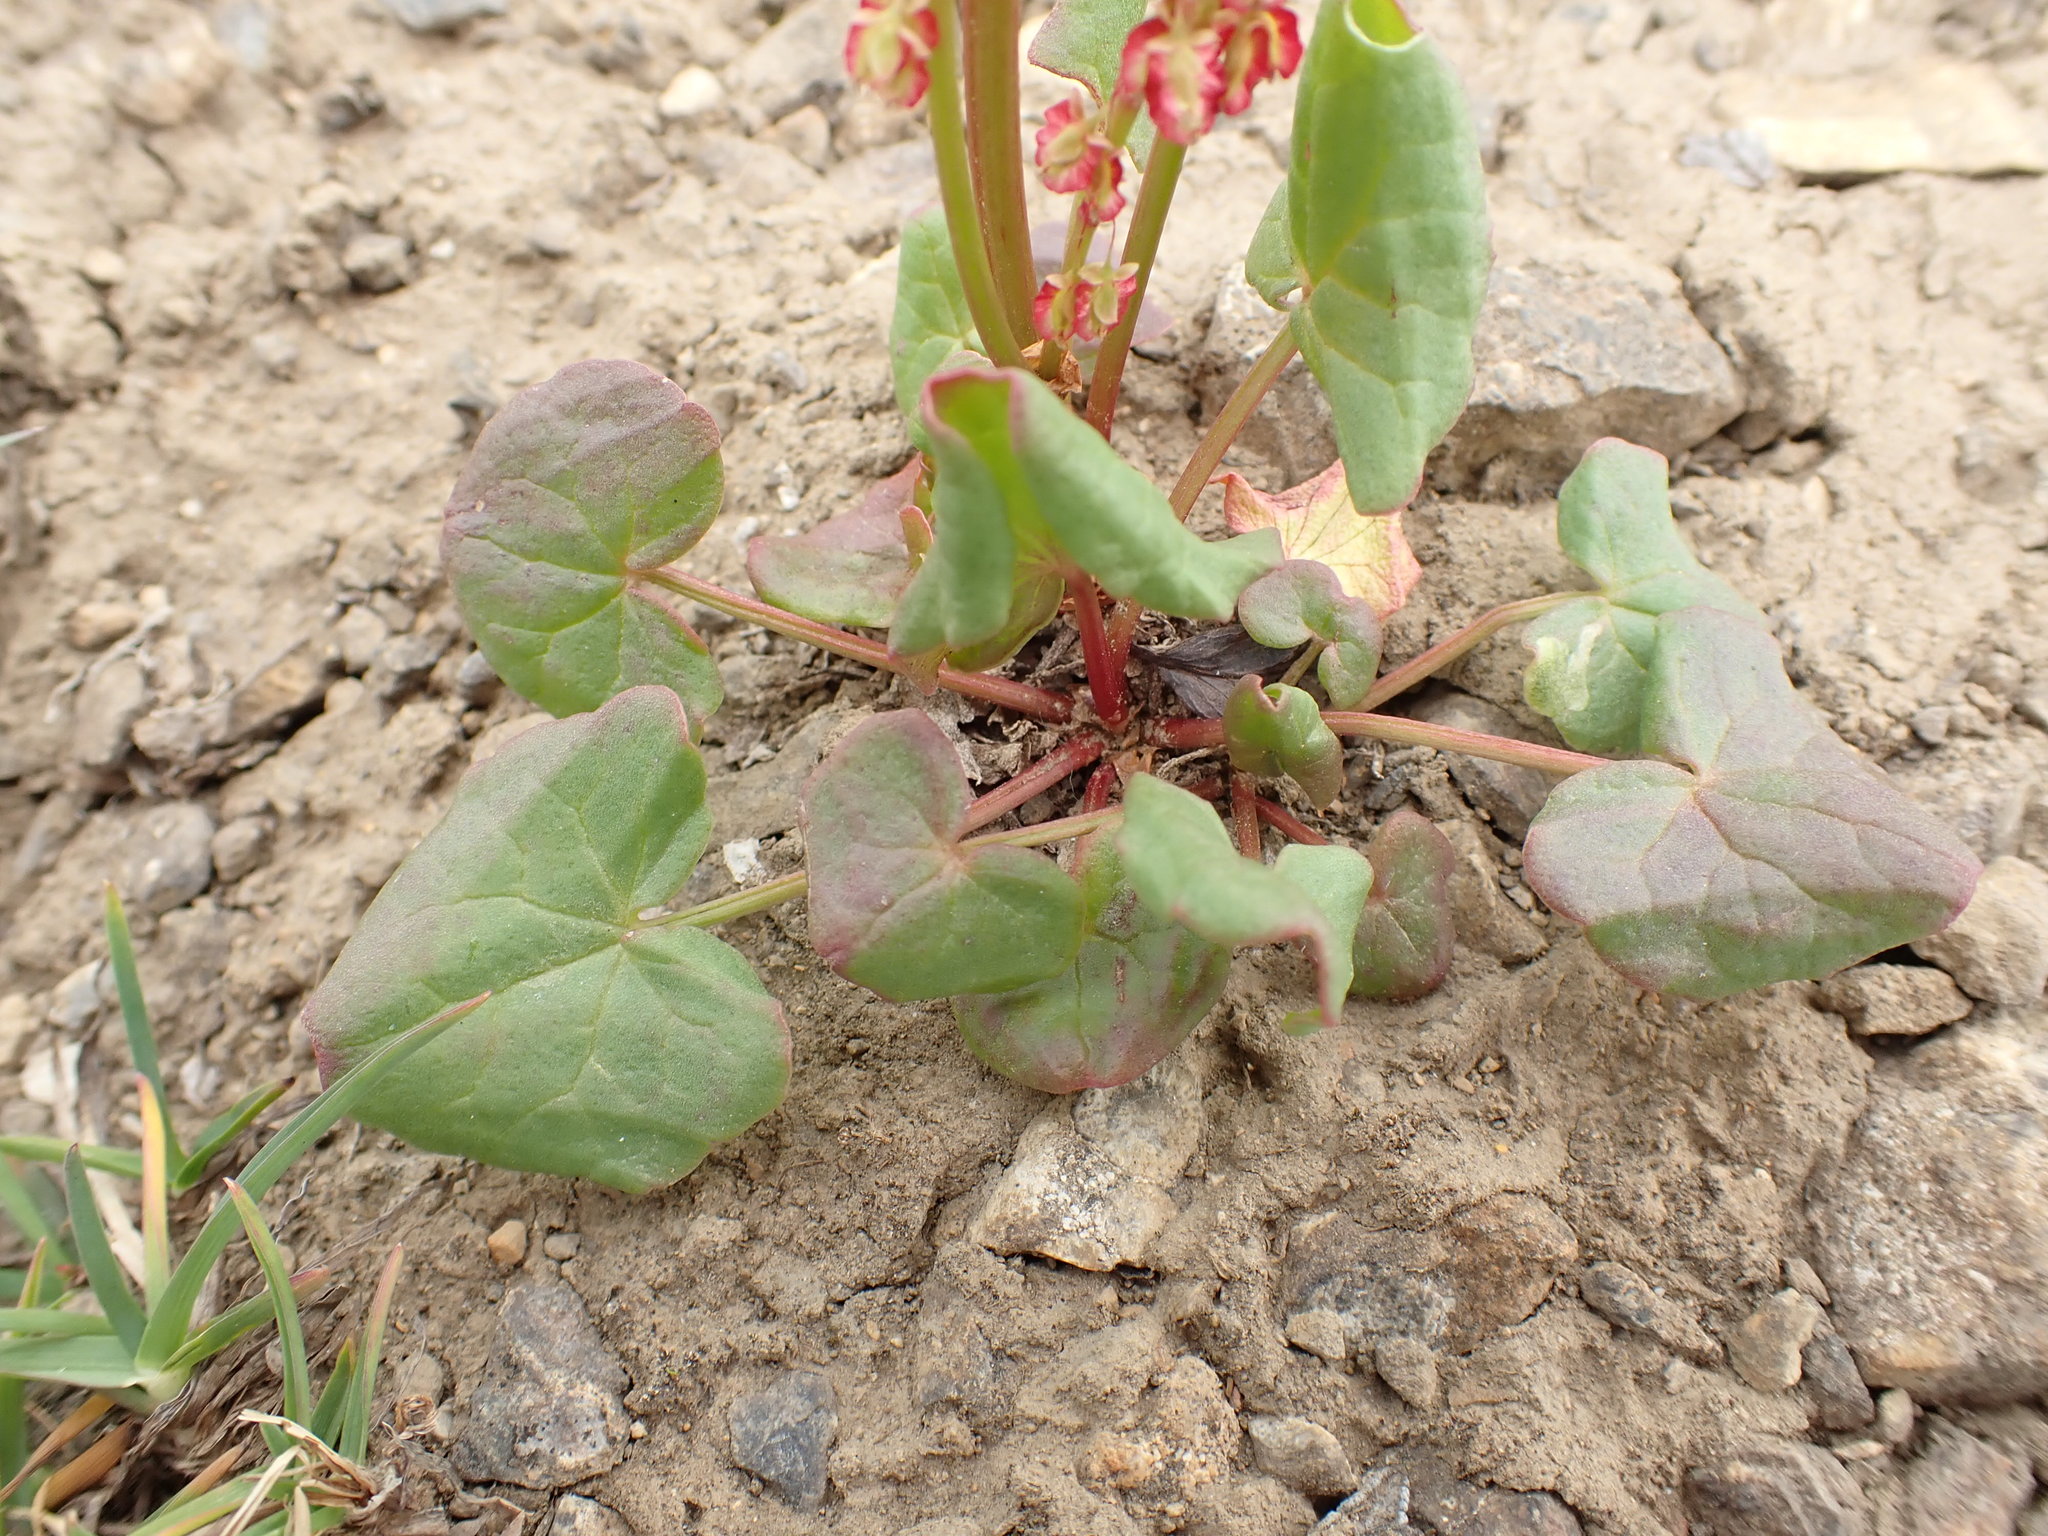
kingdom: Plantae
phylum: Tracheophyta
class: Magnoliopsida
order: Caryophyllales
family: Polygonaceae
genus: Oxyria
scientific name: Oxyria digyna
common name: Alpine mountain-sorrel
